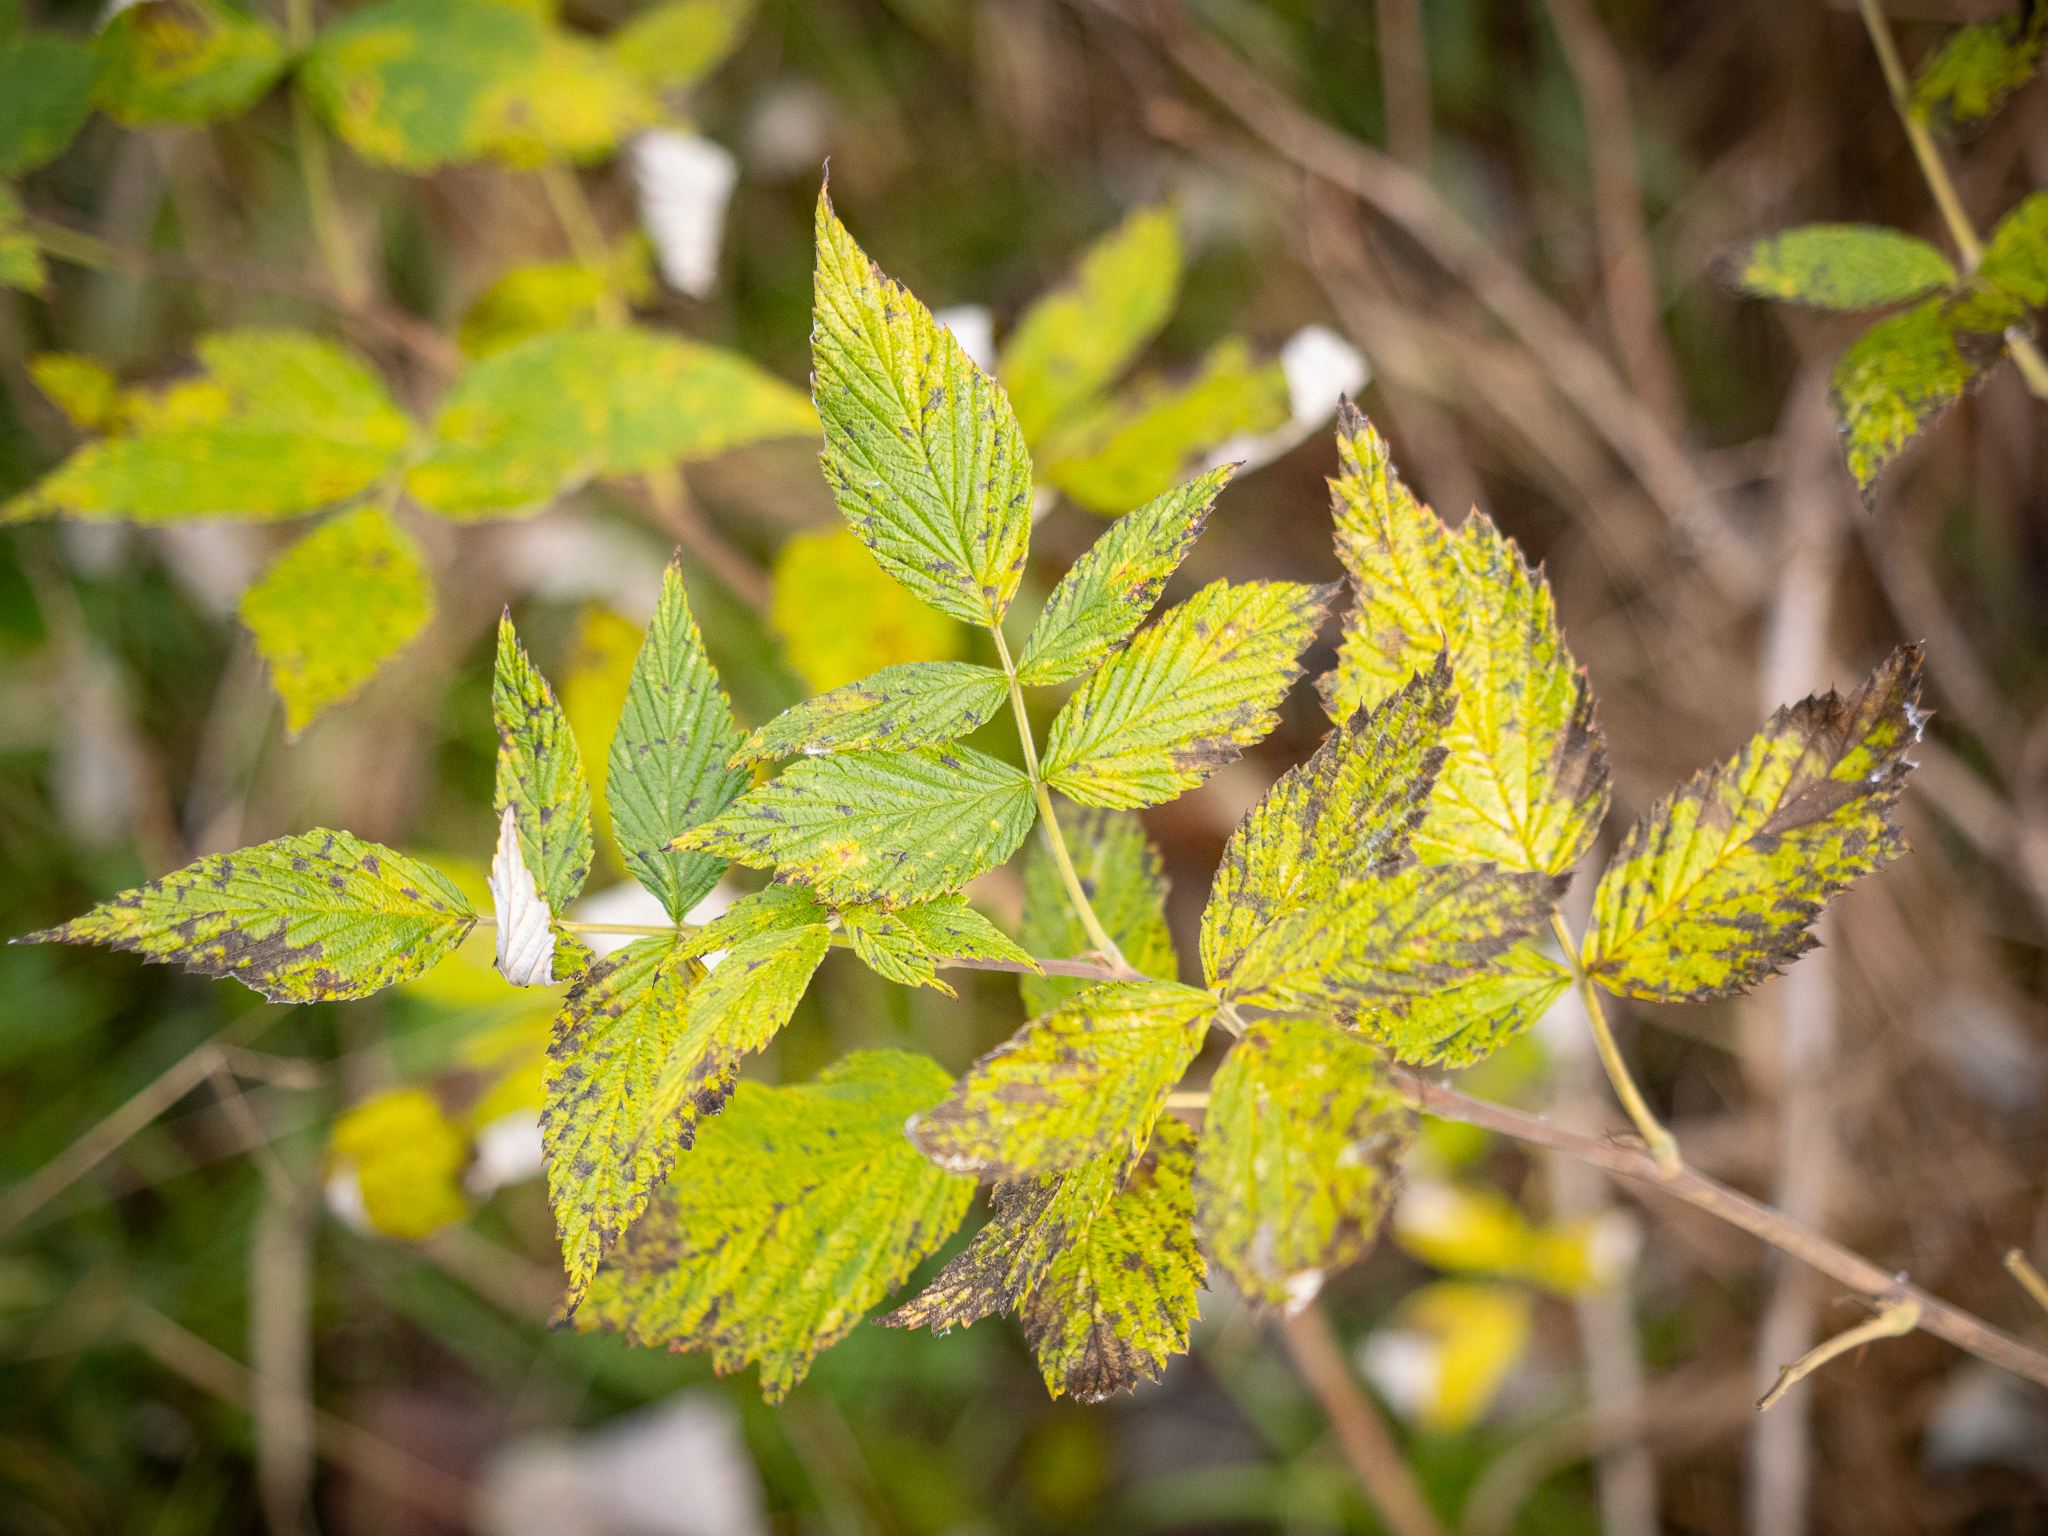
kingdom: Plantae
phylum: Tracheophyta
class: Magnoliopsida
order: Rosales
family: Rosaceae
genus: Rubus
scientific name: Rubus idaeus
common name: Raspberry
